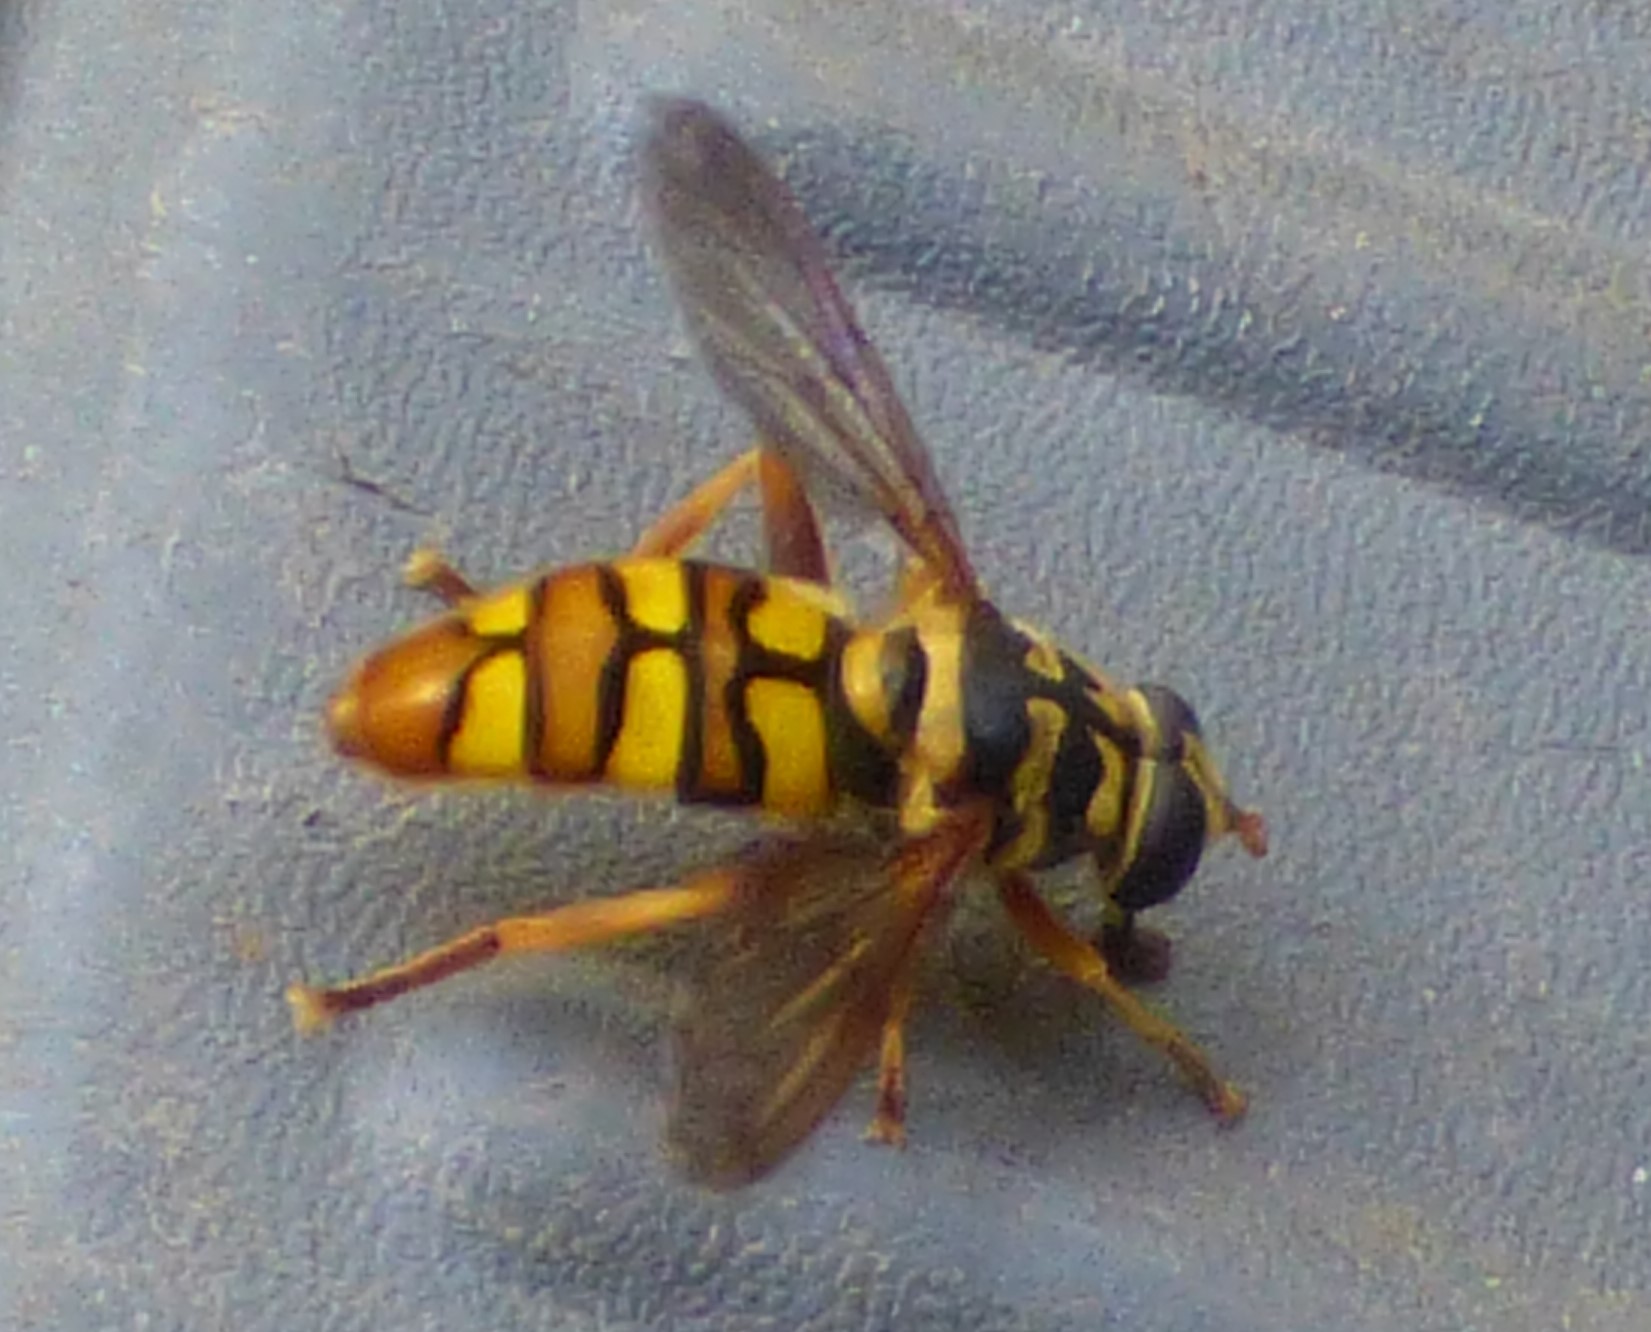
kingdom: Animalia
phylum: Arthropoda
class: Insecta
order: Diptera
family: Syrphidae
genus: Milesia
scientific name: Milesia virginiensis
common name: Virginia giant
